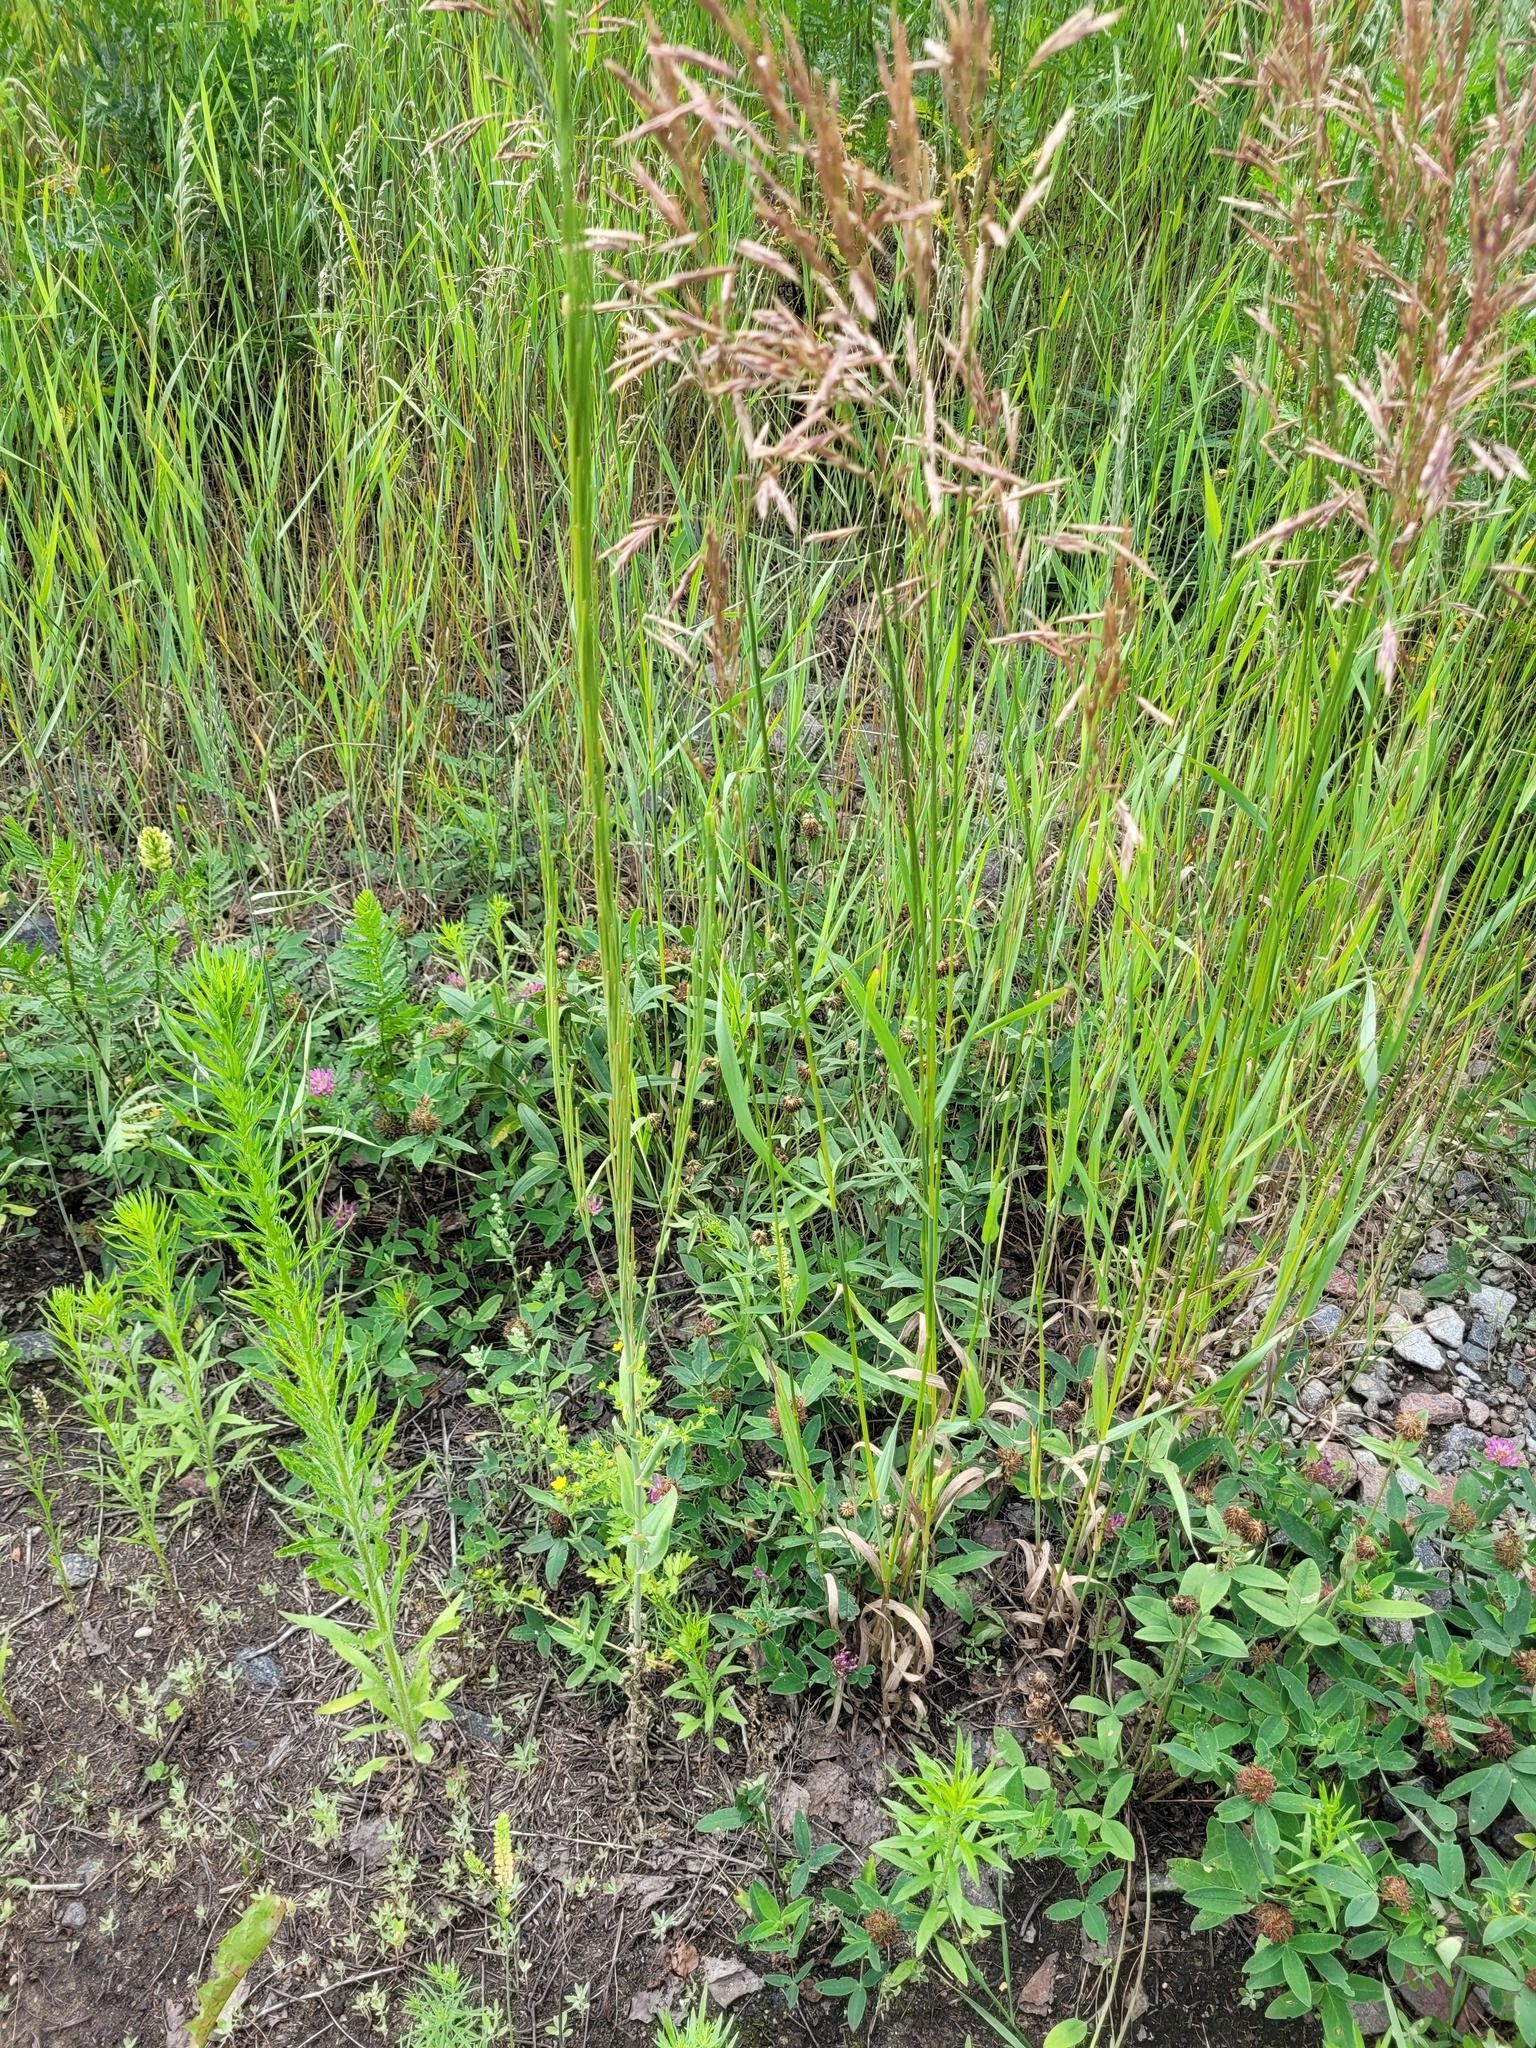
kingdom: Plantae
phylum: Tracheophyta
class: Magnoliopsida
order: Brassicales
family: Brassicaceae
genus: Turritis
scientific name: Turritis glabra
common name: Tower rockcress
